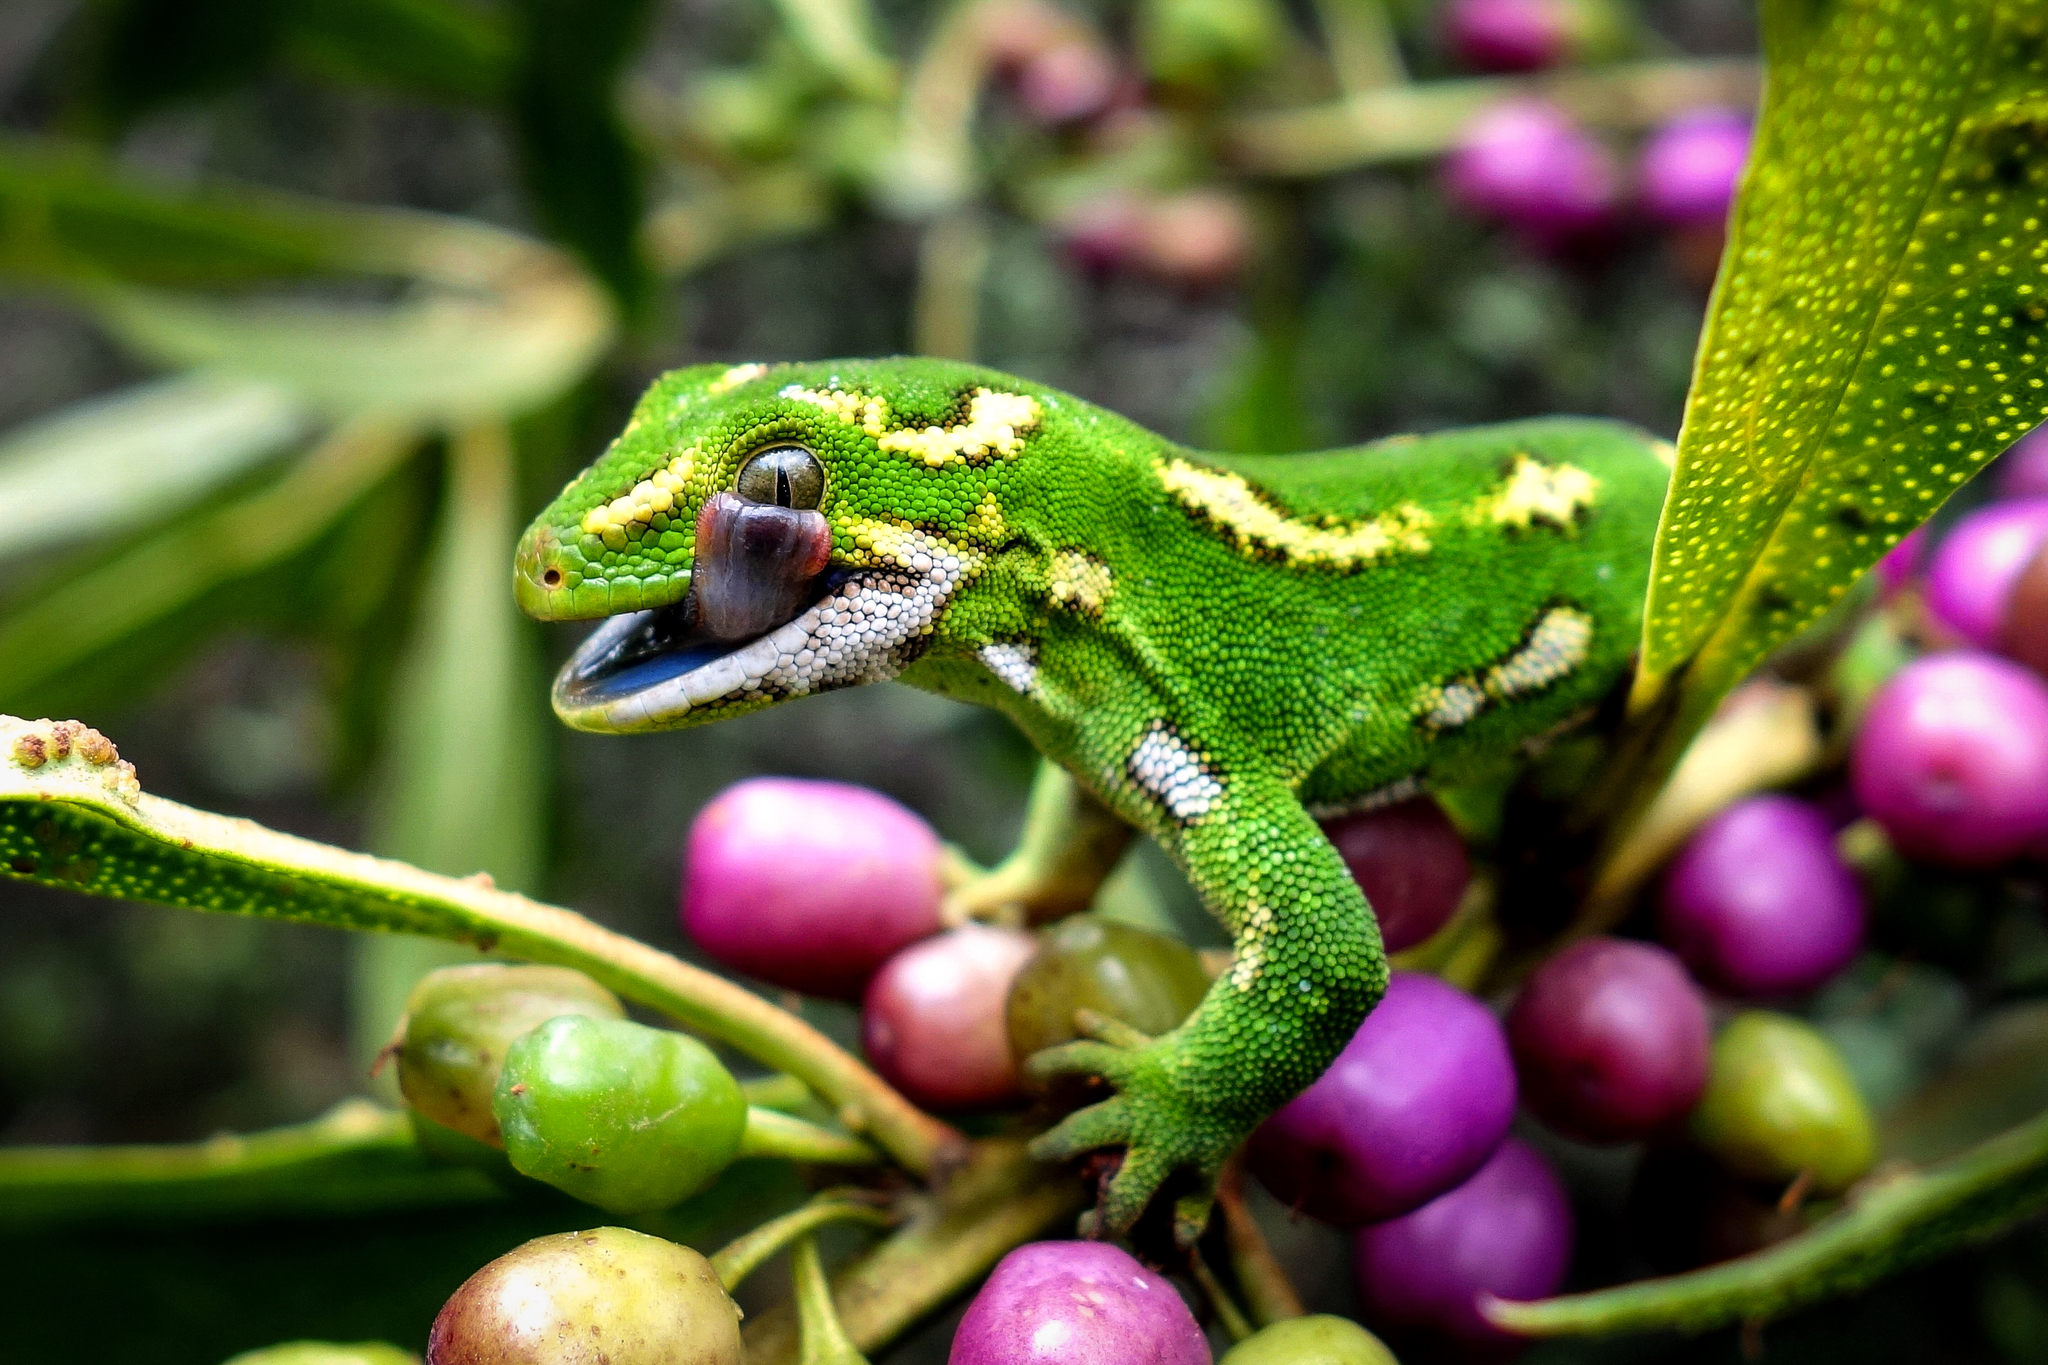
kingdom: Animalia
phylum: Chordata
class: Squamata
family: Diplodactylidae
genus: Naultinus
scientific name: Naultinus gemmeus
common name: Jewelled gecko
